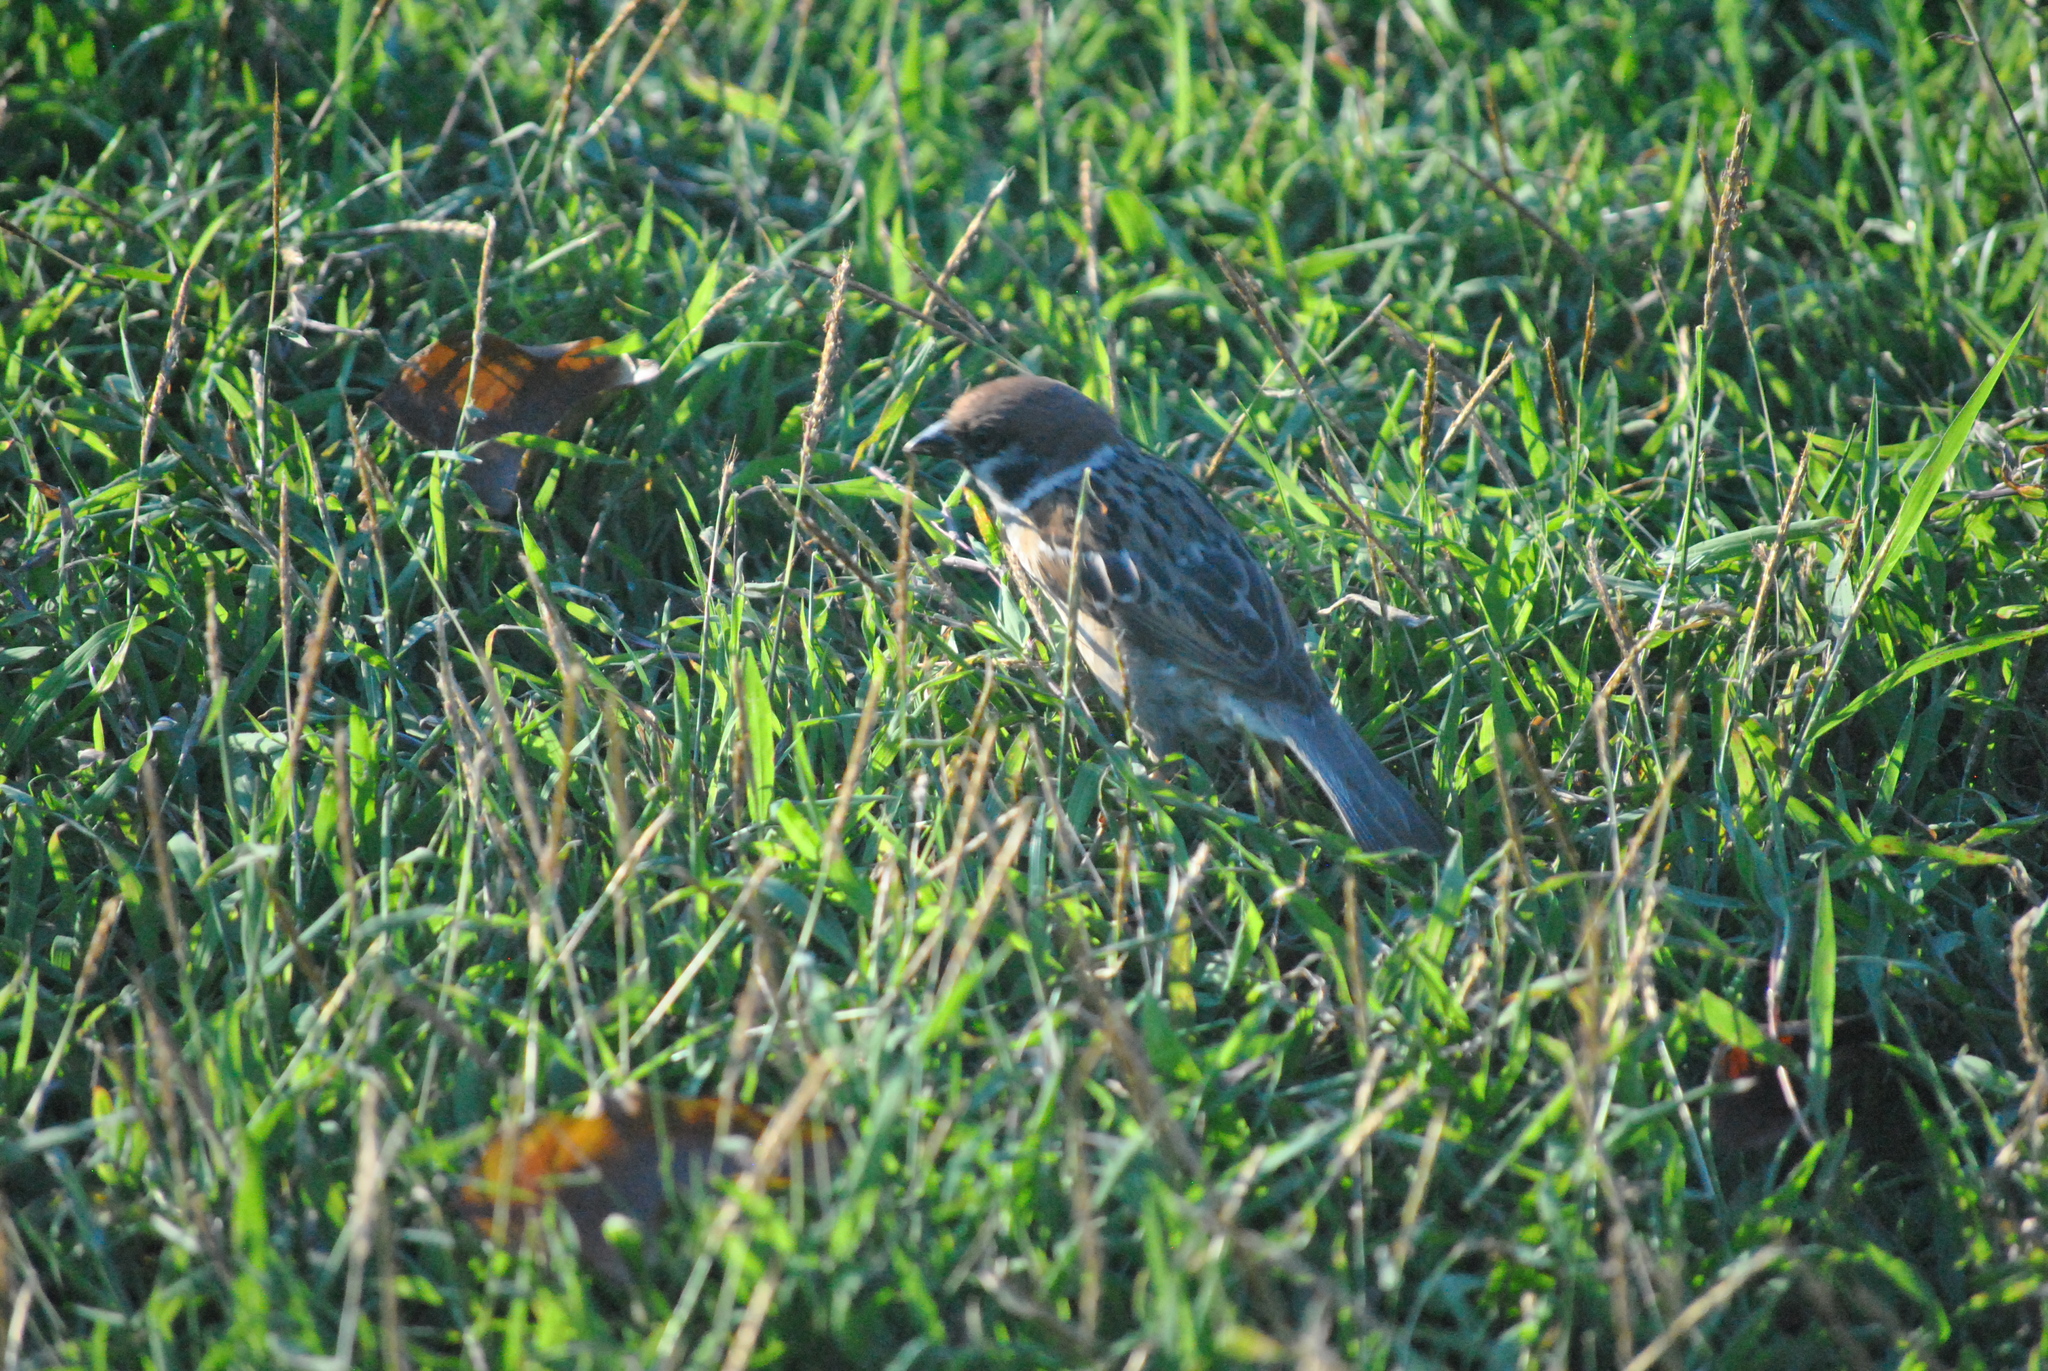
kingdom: Animalia
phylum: Chordata
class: Aves
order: Passeriformes
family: Passeridae
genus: Passer
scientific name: Passer montanus
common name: Eurasian tree sparrow
